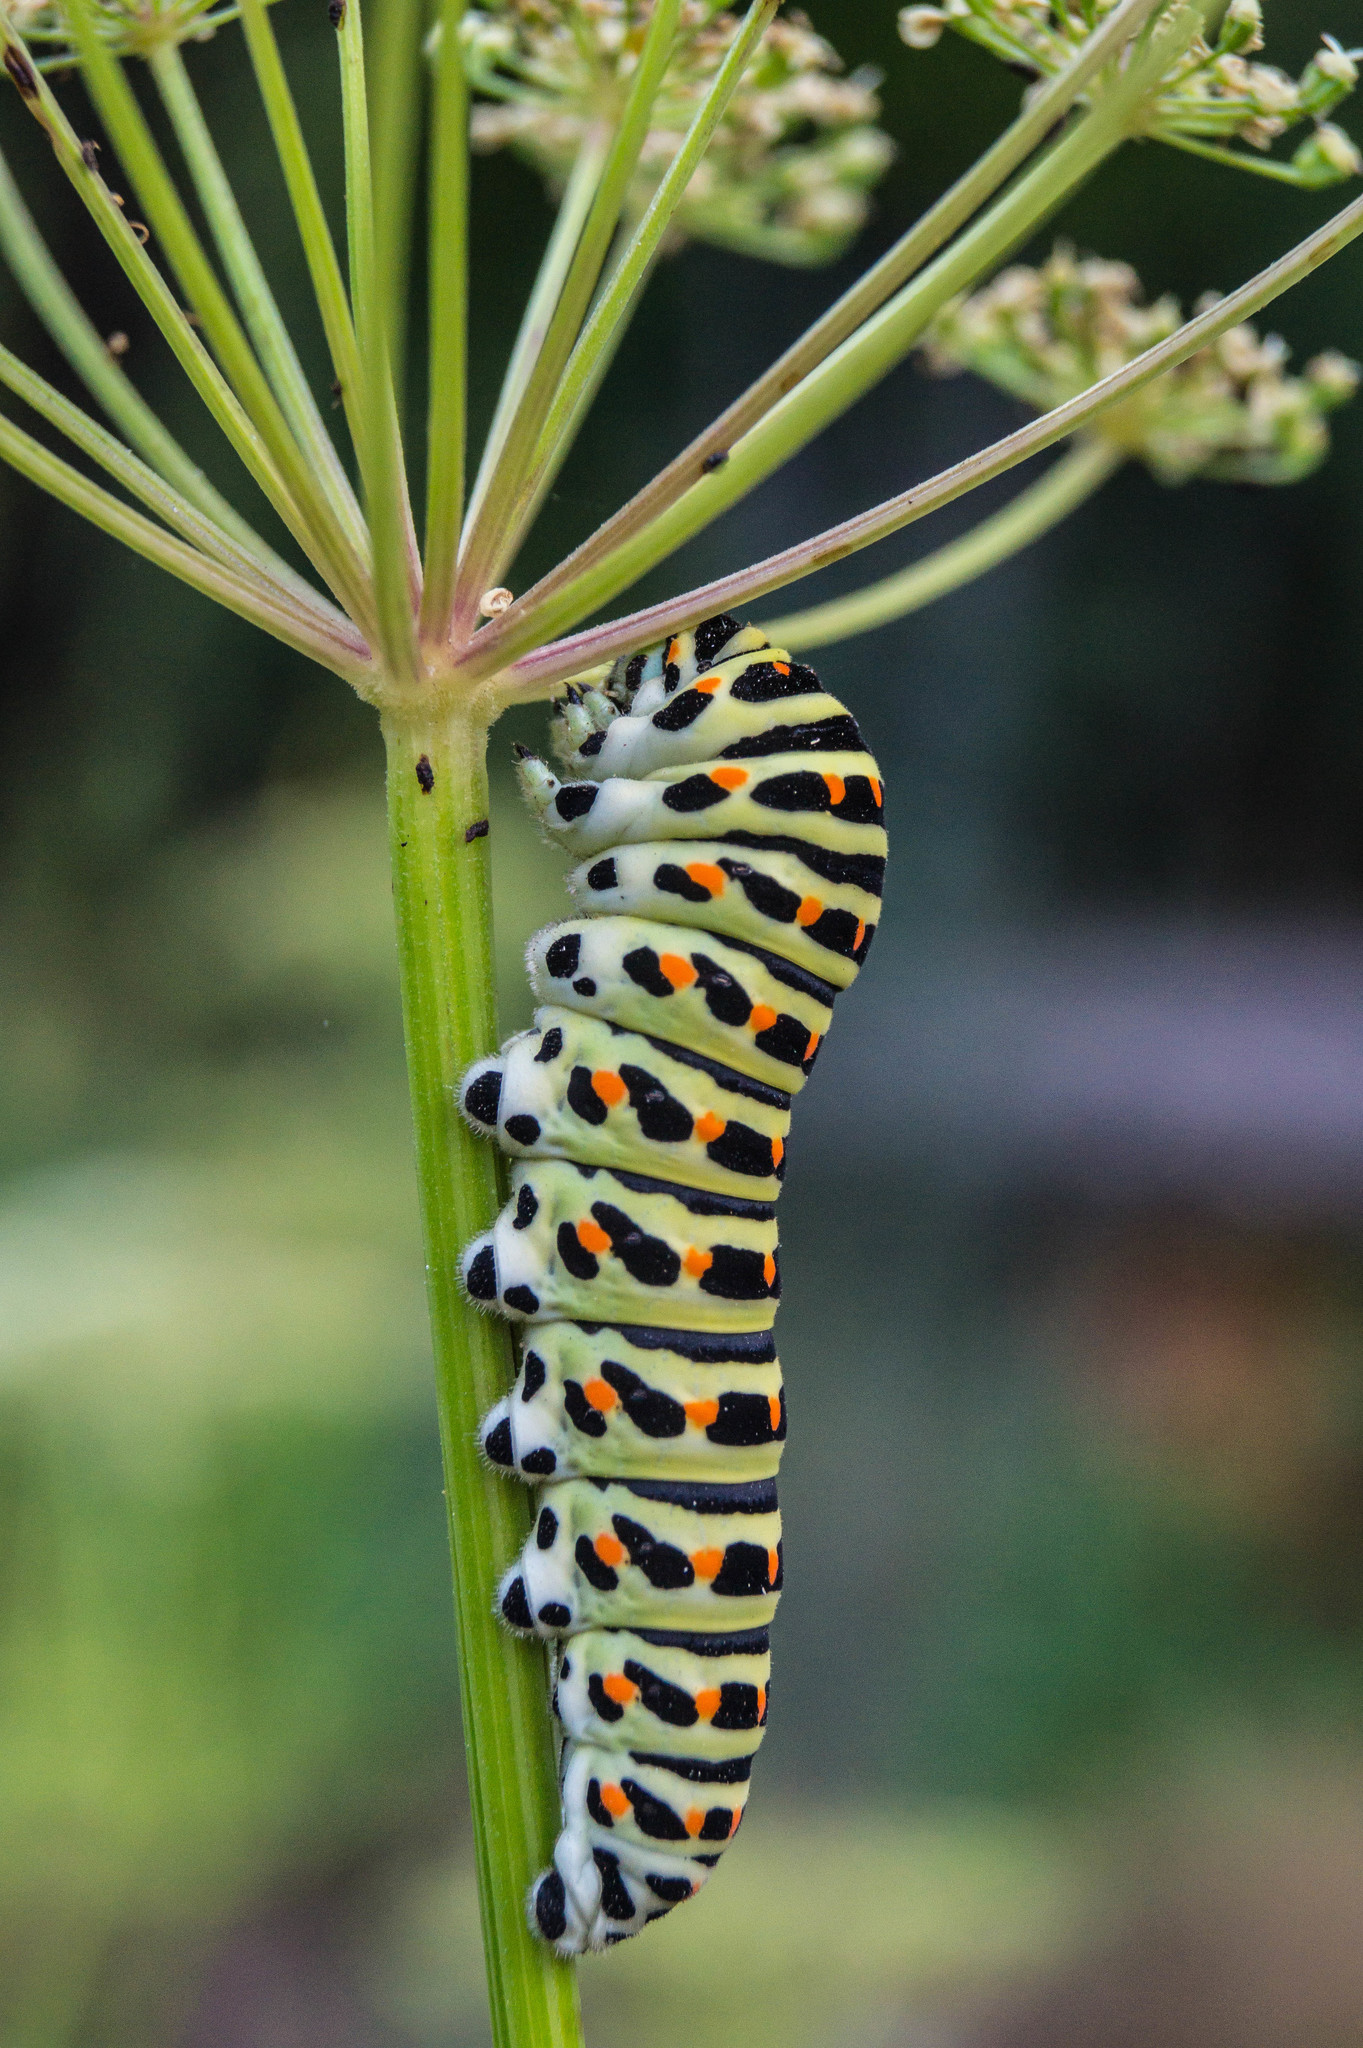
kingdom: Animalia
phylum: Arthropoda
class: Insecta
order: Lepidoptera
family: Papilionidae
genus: Papilio
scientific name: Papilio machaon
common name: Swallowtail
